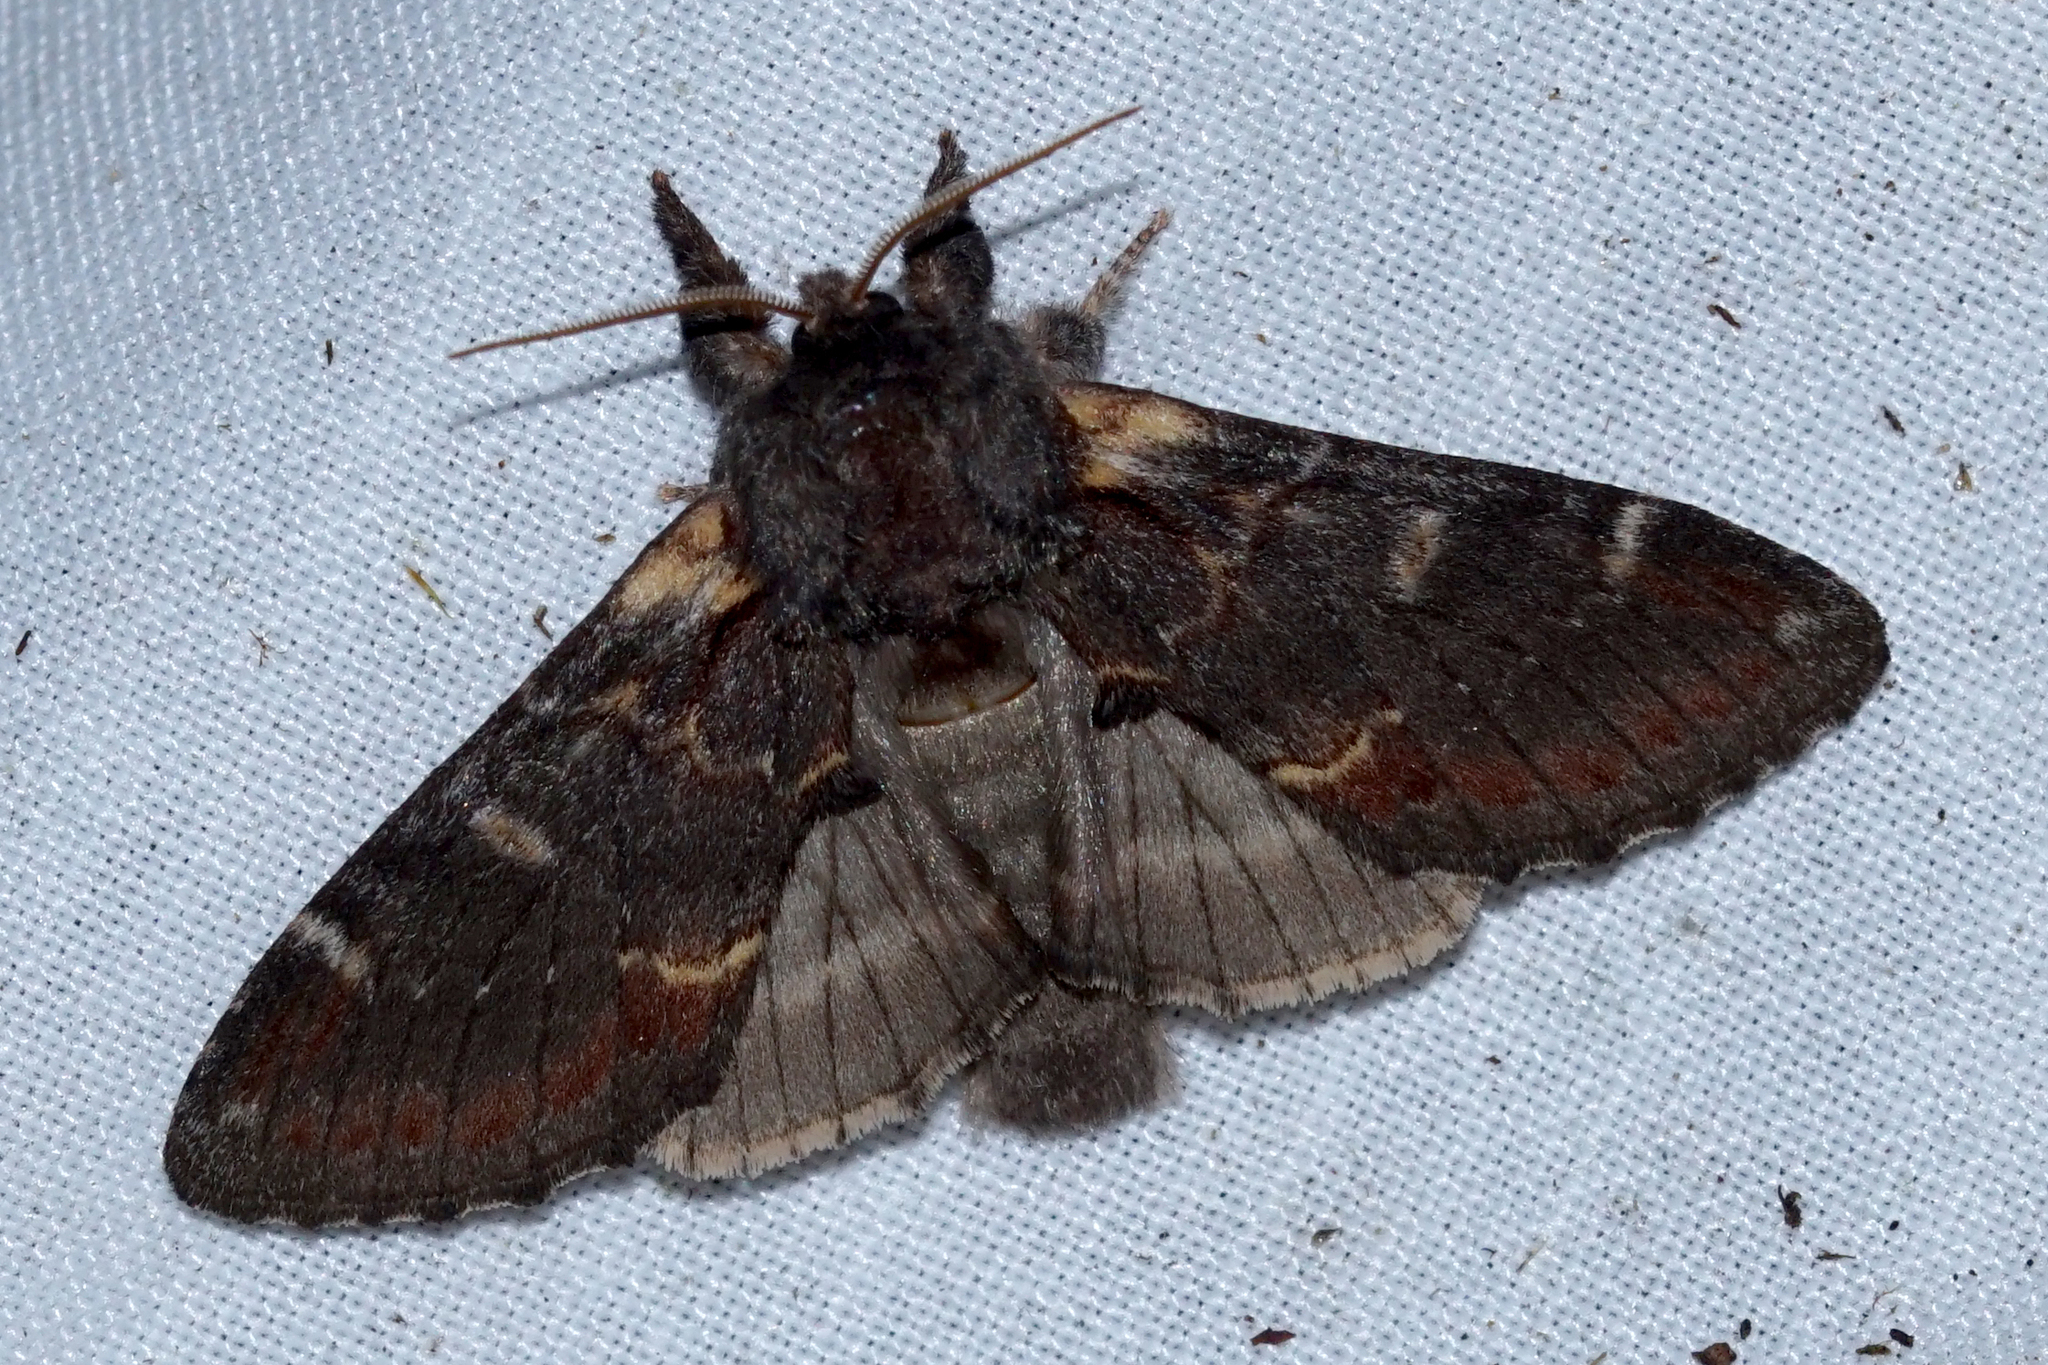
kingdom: Animalia
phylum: Arthropoda
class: Insecta
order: Lepidoptera
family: Notodontidae
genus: Notodonta
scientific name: Notodonta dromedarius
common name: Iron prominent
